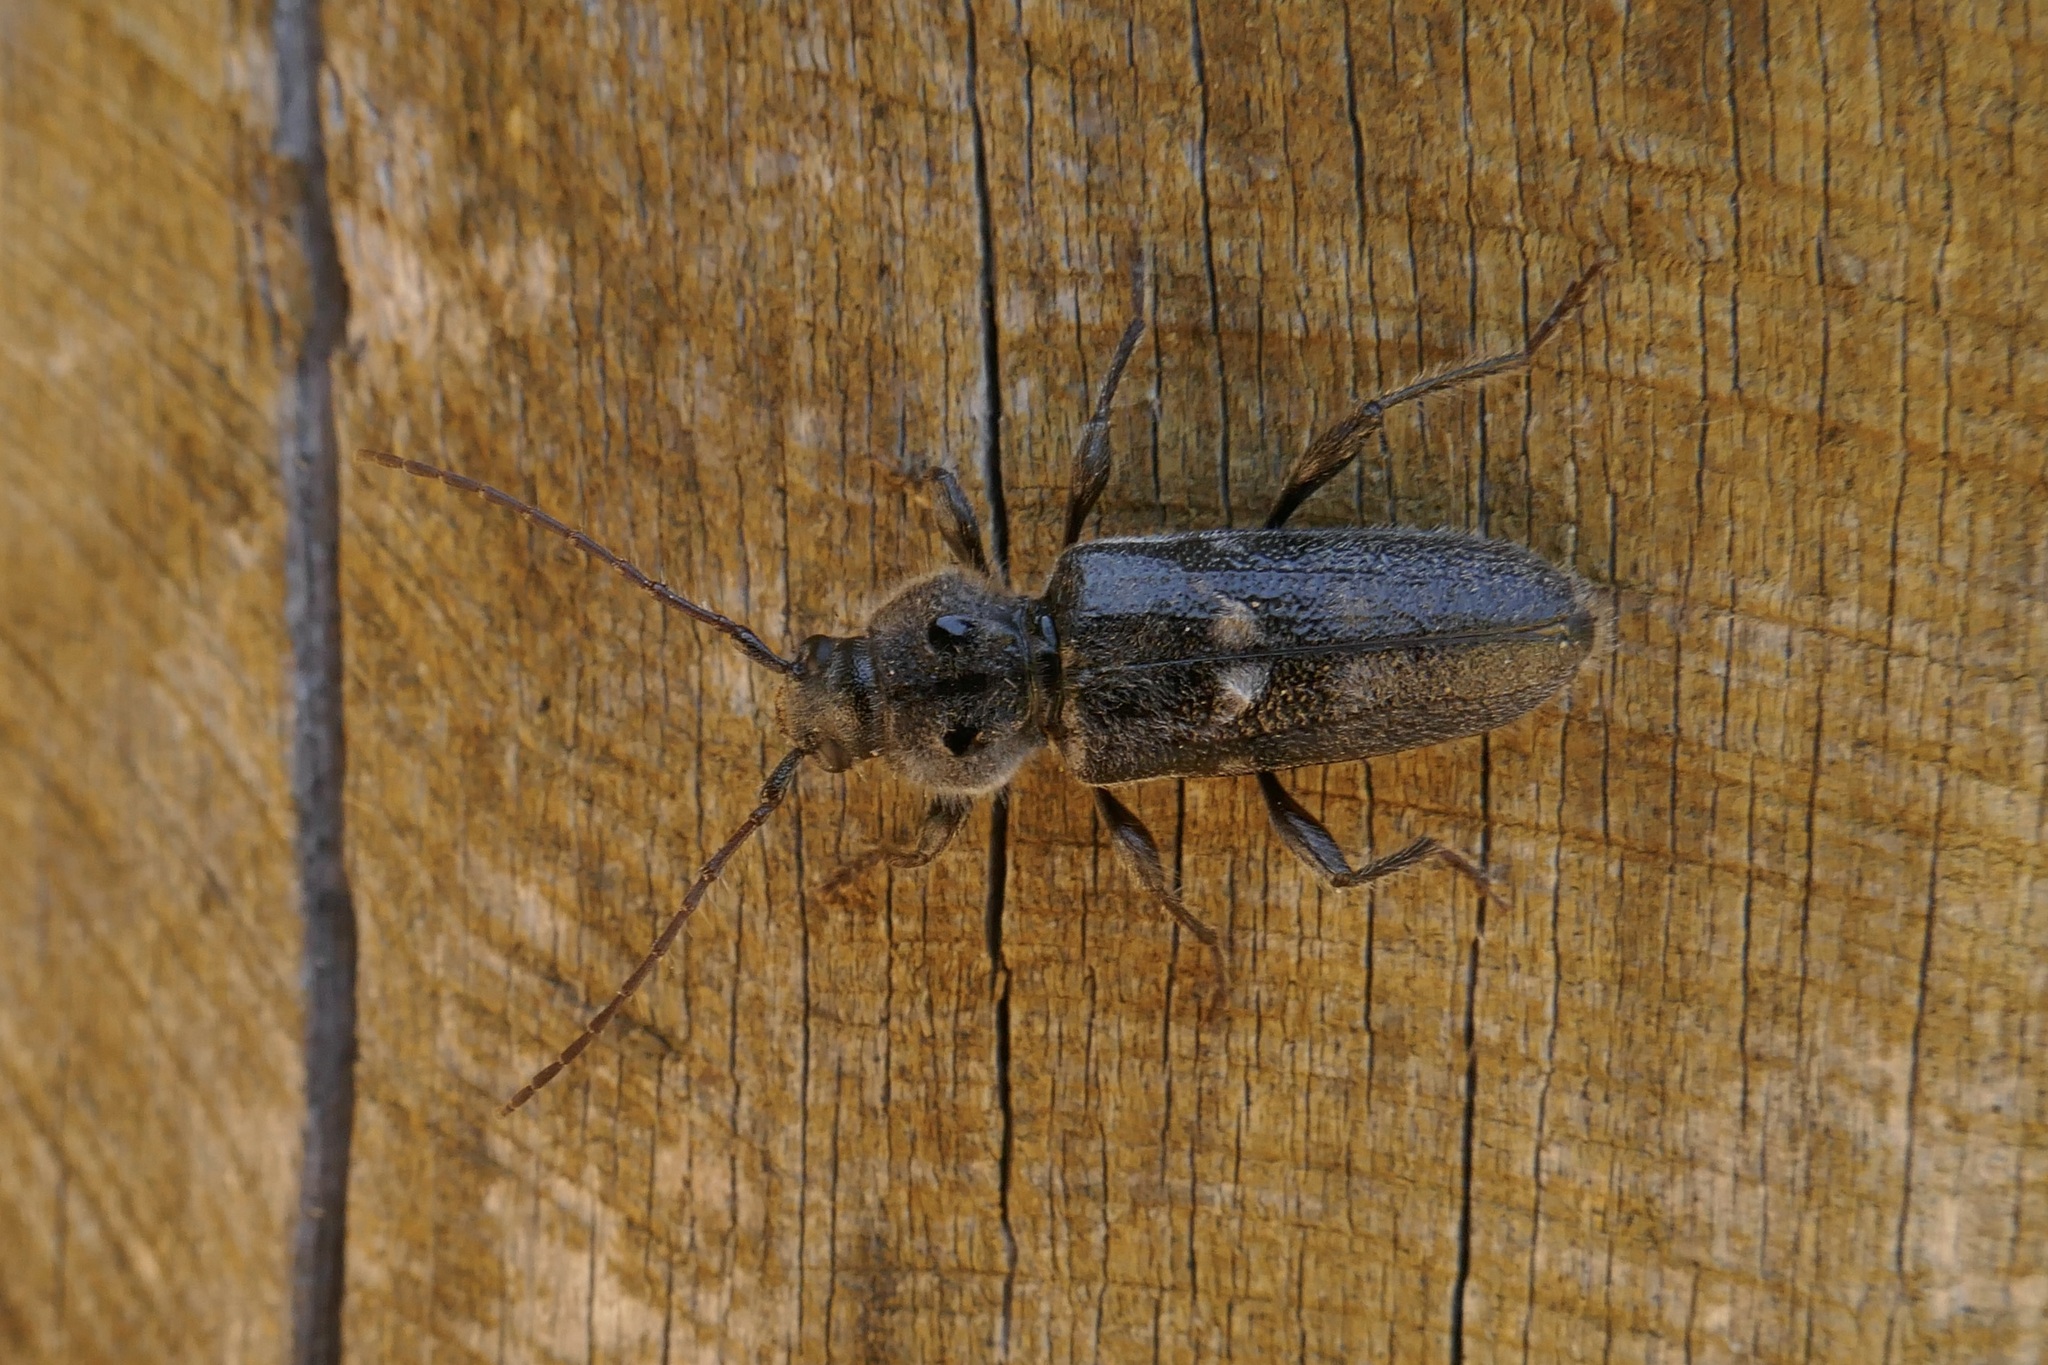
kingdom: Animalia
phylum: Arthropoda
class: Insecta
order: Coleoptera
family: Cerambycidae
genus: Hylotrupes
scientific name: Hylotrupes bajulus
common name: Old house borer
